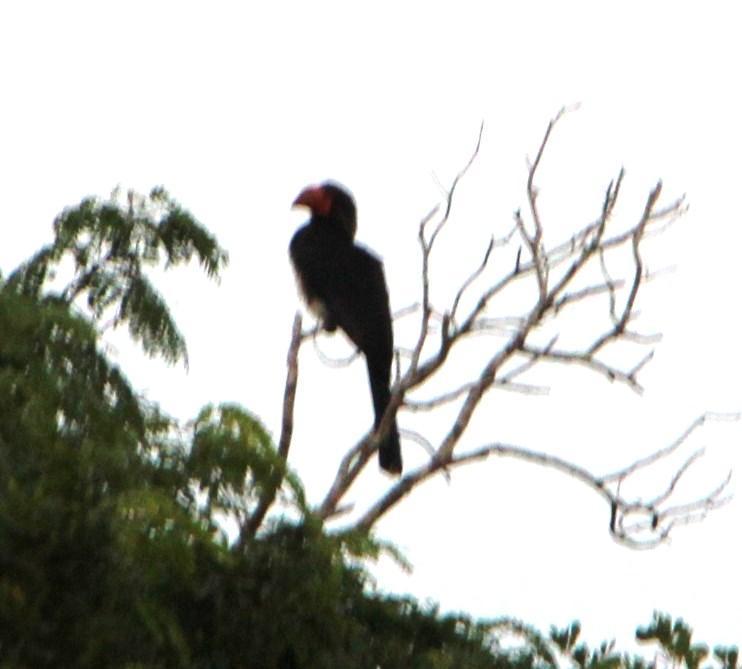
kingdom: Animalia
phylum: Chordata
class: Aves
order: Bucerotiformes
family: Bucerotidae
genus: Lophoceros
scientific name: Lophoceros alboterminatus
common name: Crowned hornbill
